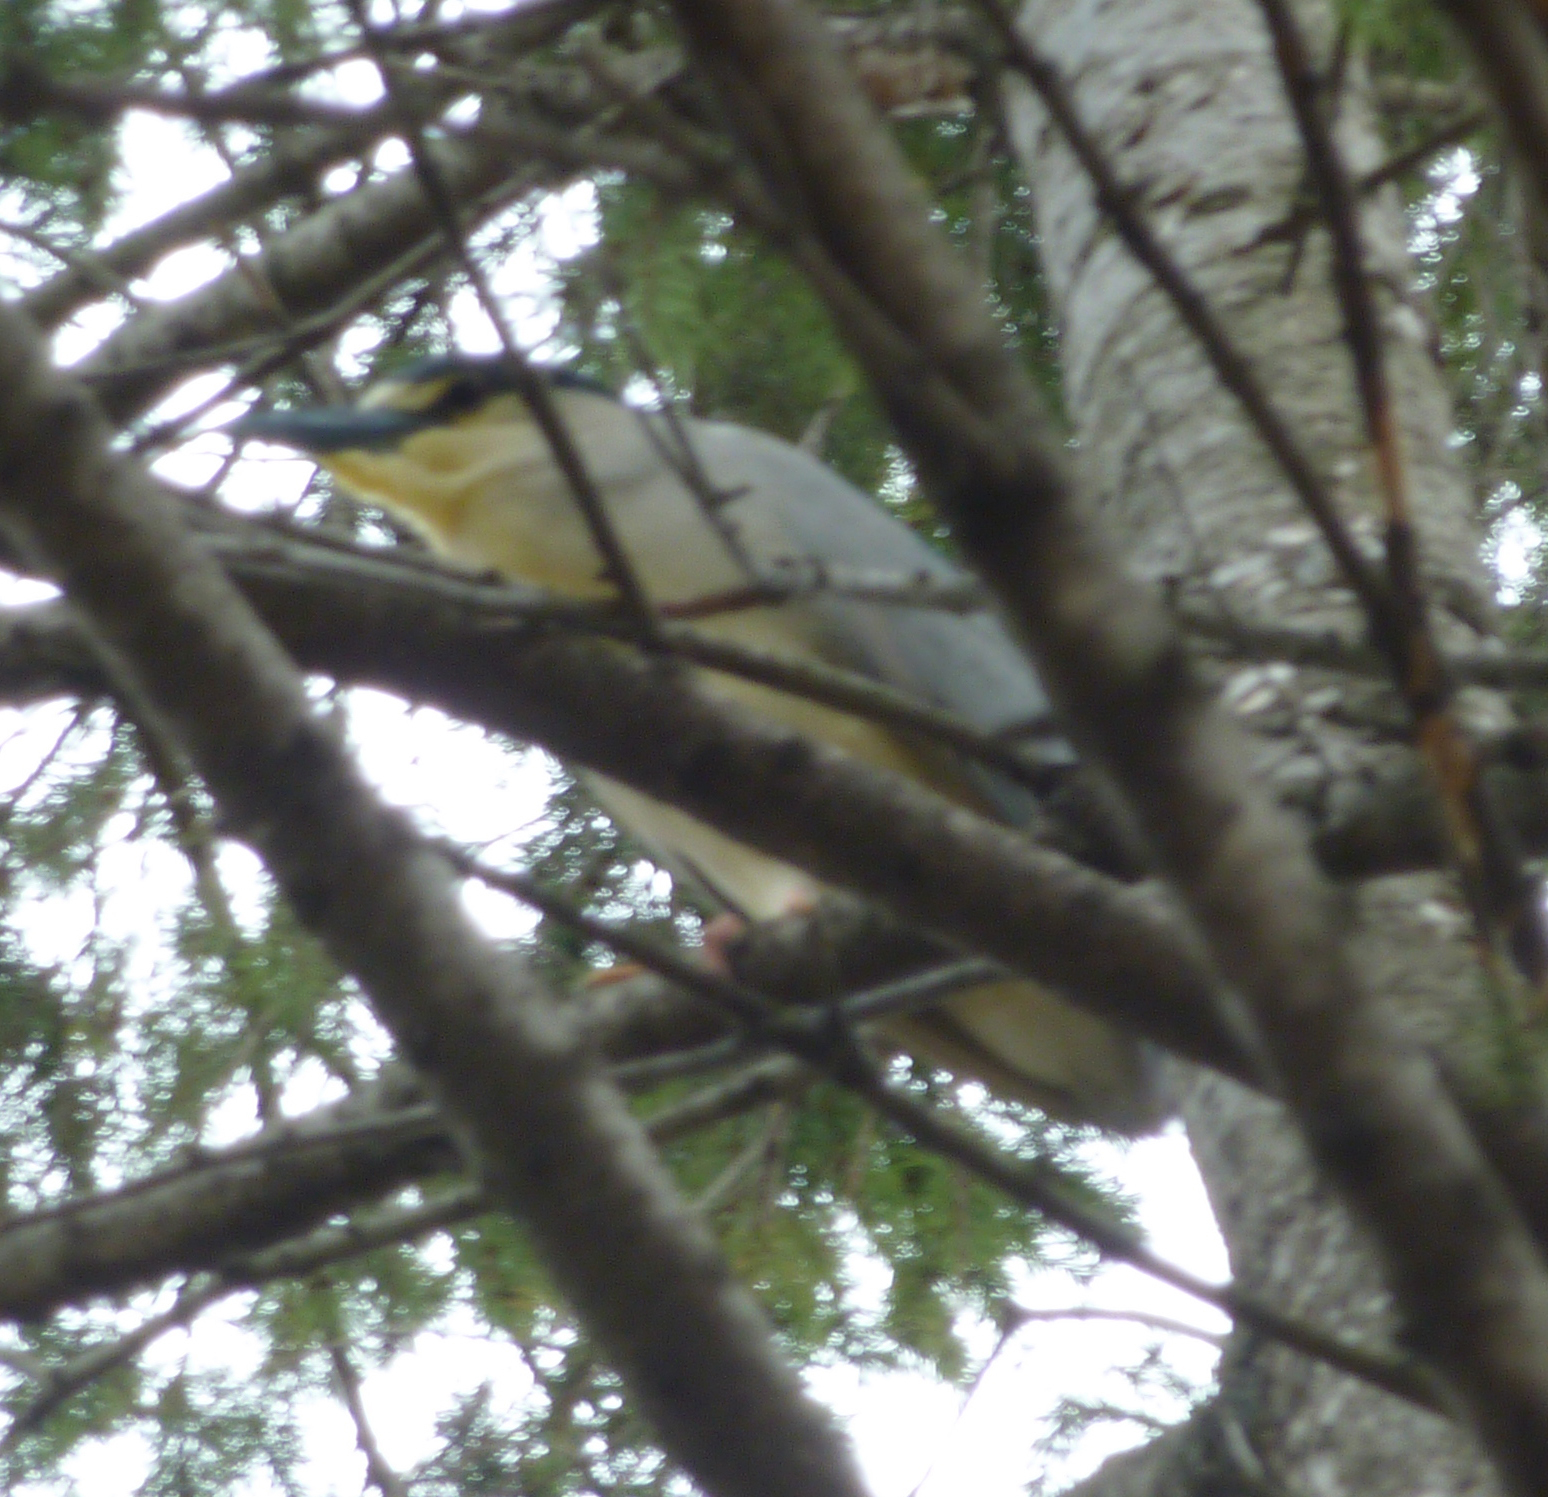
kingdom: Animalia
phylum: Chordata
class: Aves
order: Pelecaniformes
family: Ardeidae
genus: Nycticorax
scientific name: Nycticorax nycticorax
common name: Black-crowned night heron
